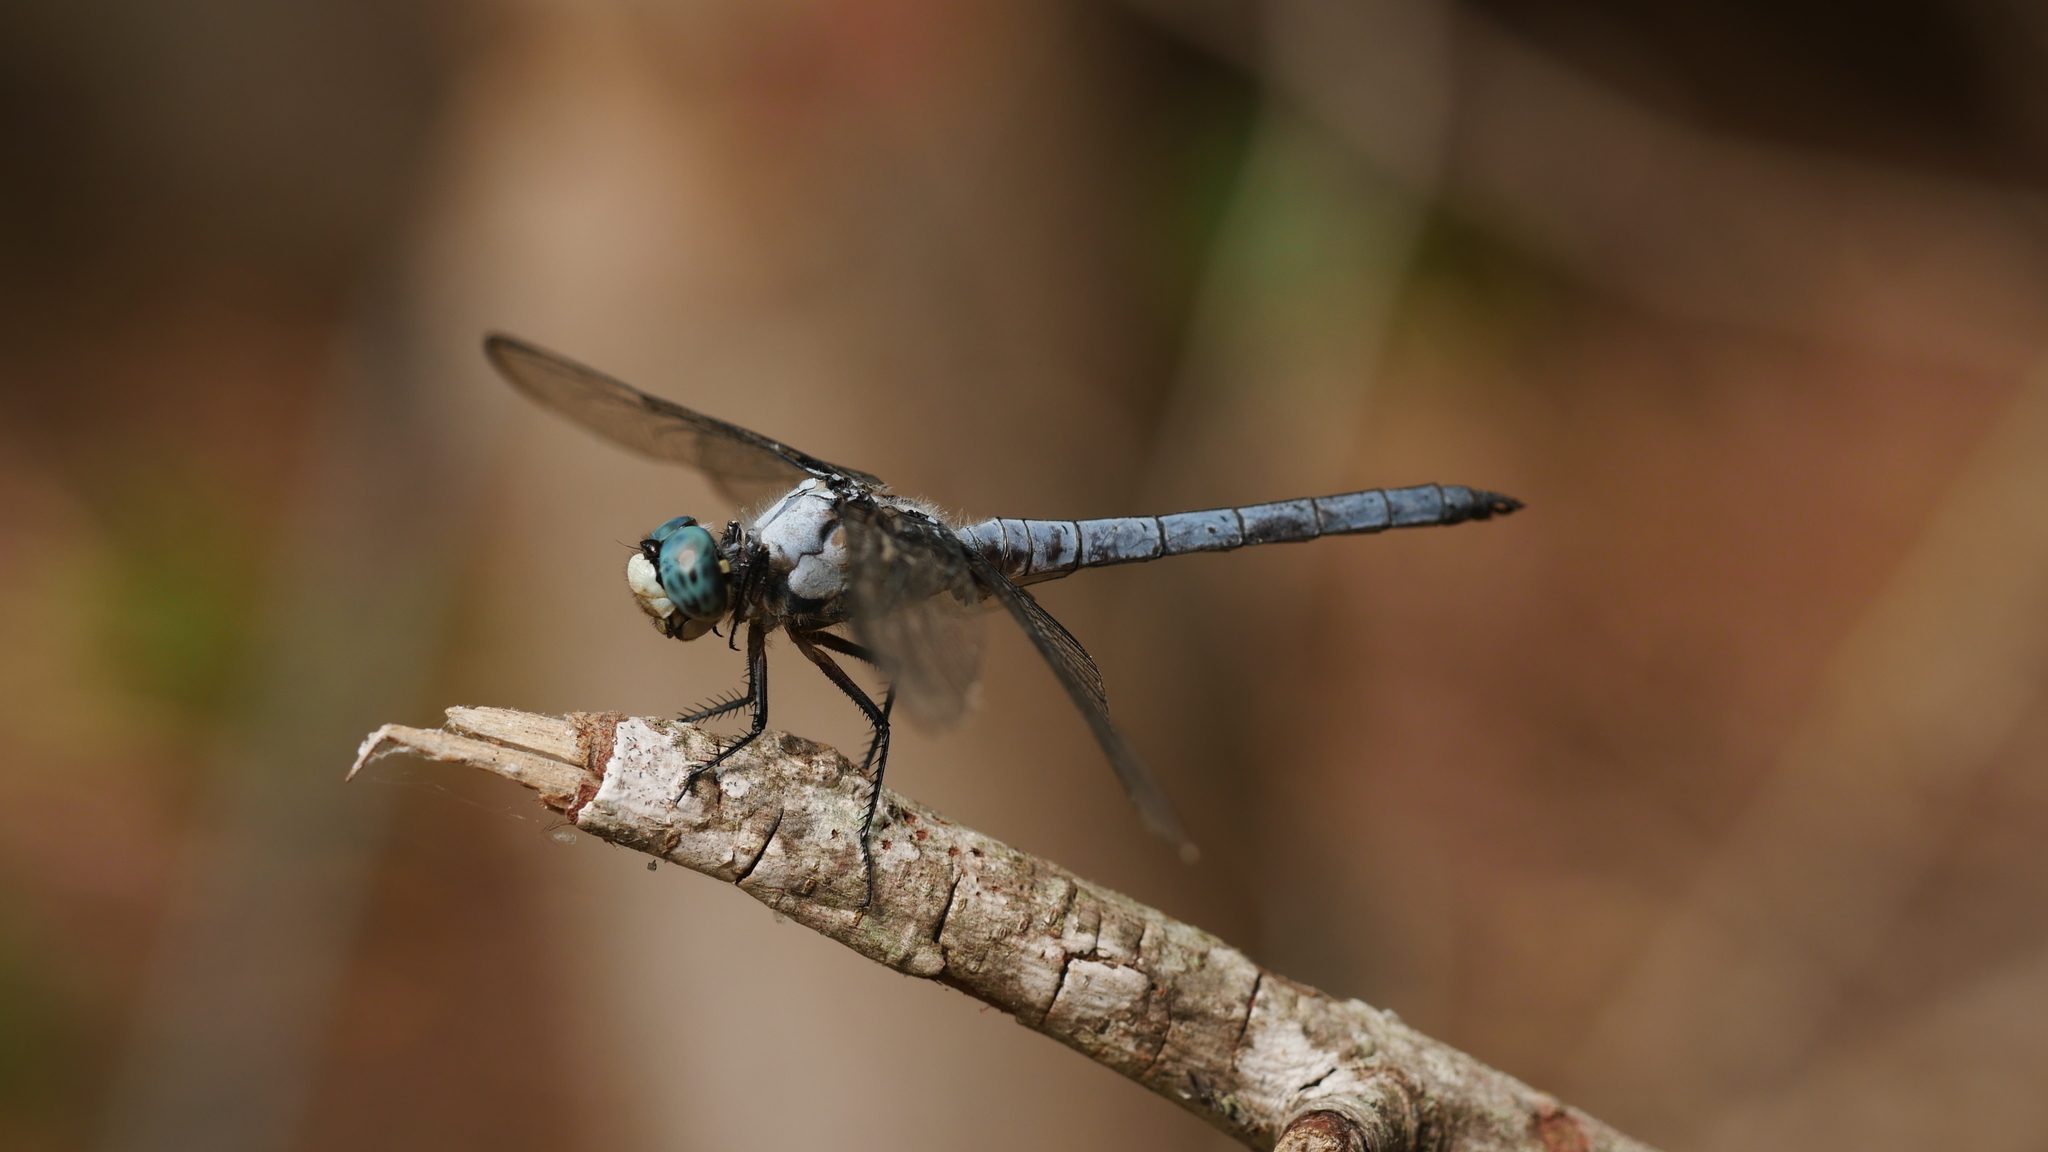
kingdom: Animalia
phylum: Arthropoda
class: Insecta
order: Odonata
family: Libellulidae
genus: Libellula
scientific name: Libellula vibrans
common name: Great blue skimmer
